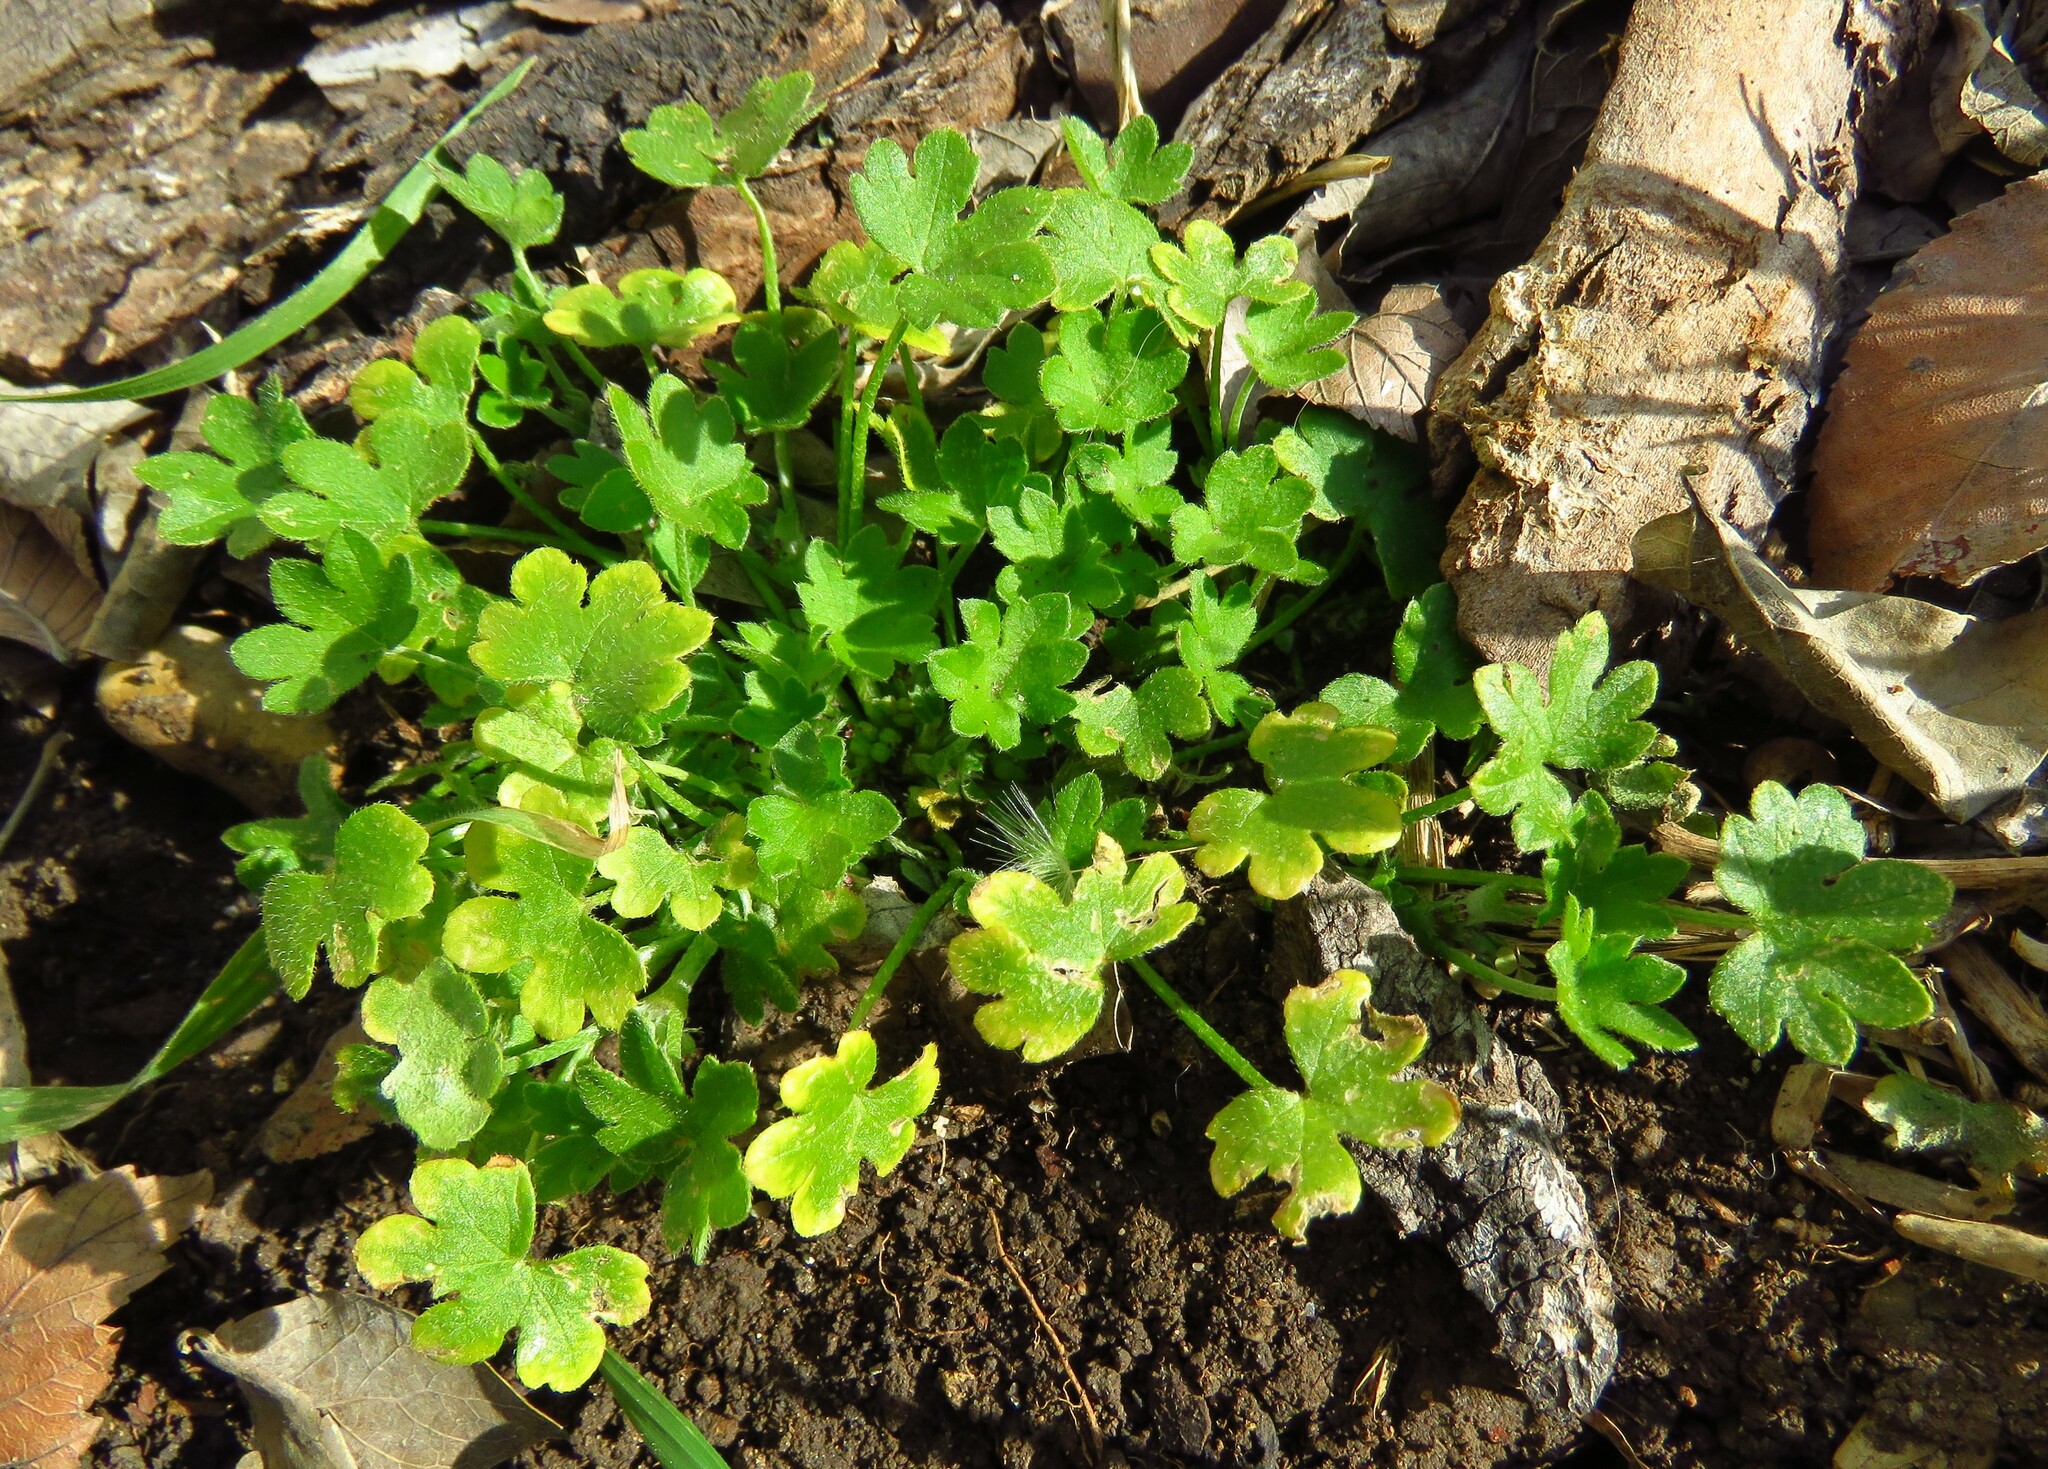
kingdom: Plantae
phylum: Tracheophyta
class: Magnoliopsida
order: Apiales
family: Apiaceae
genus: Bowlesia
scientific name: Bowlesia incana
